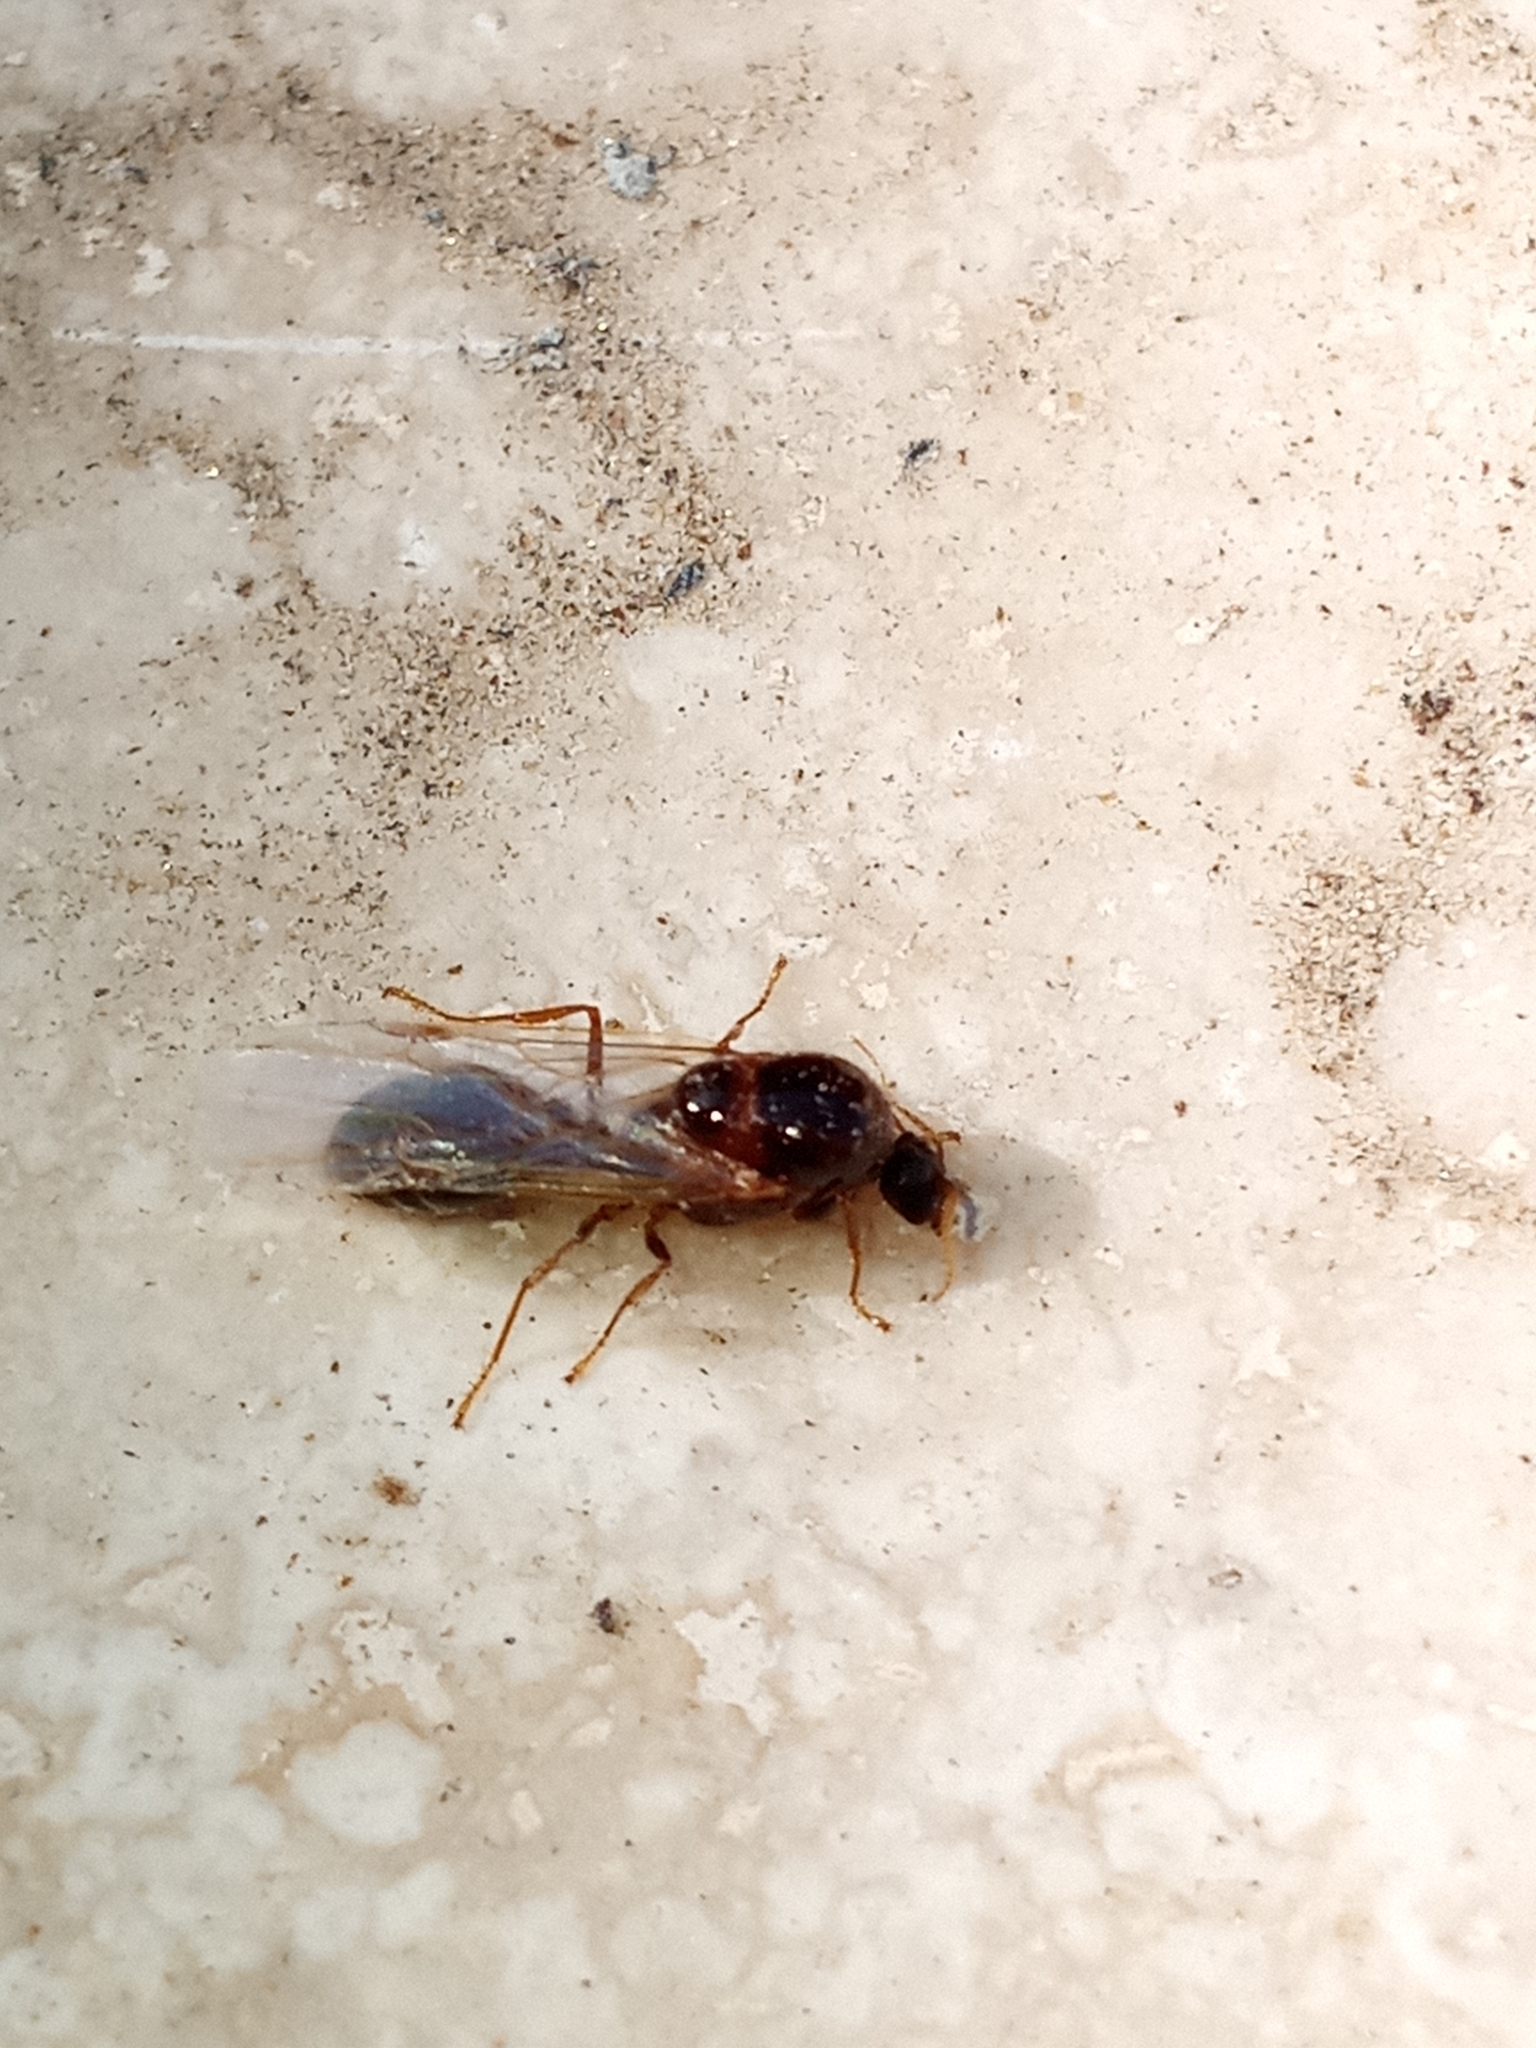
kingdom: Animalia
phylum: Arthropoda
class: Insecta
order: Hymenoptera
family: Formicidae
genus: Linepithema
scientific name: Linepithema humile
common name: Argentine ant
